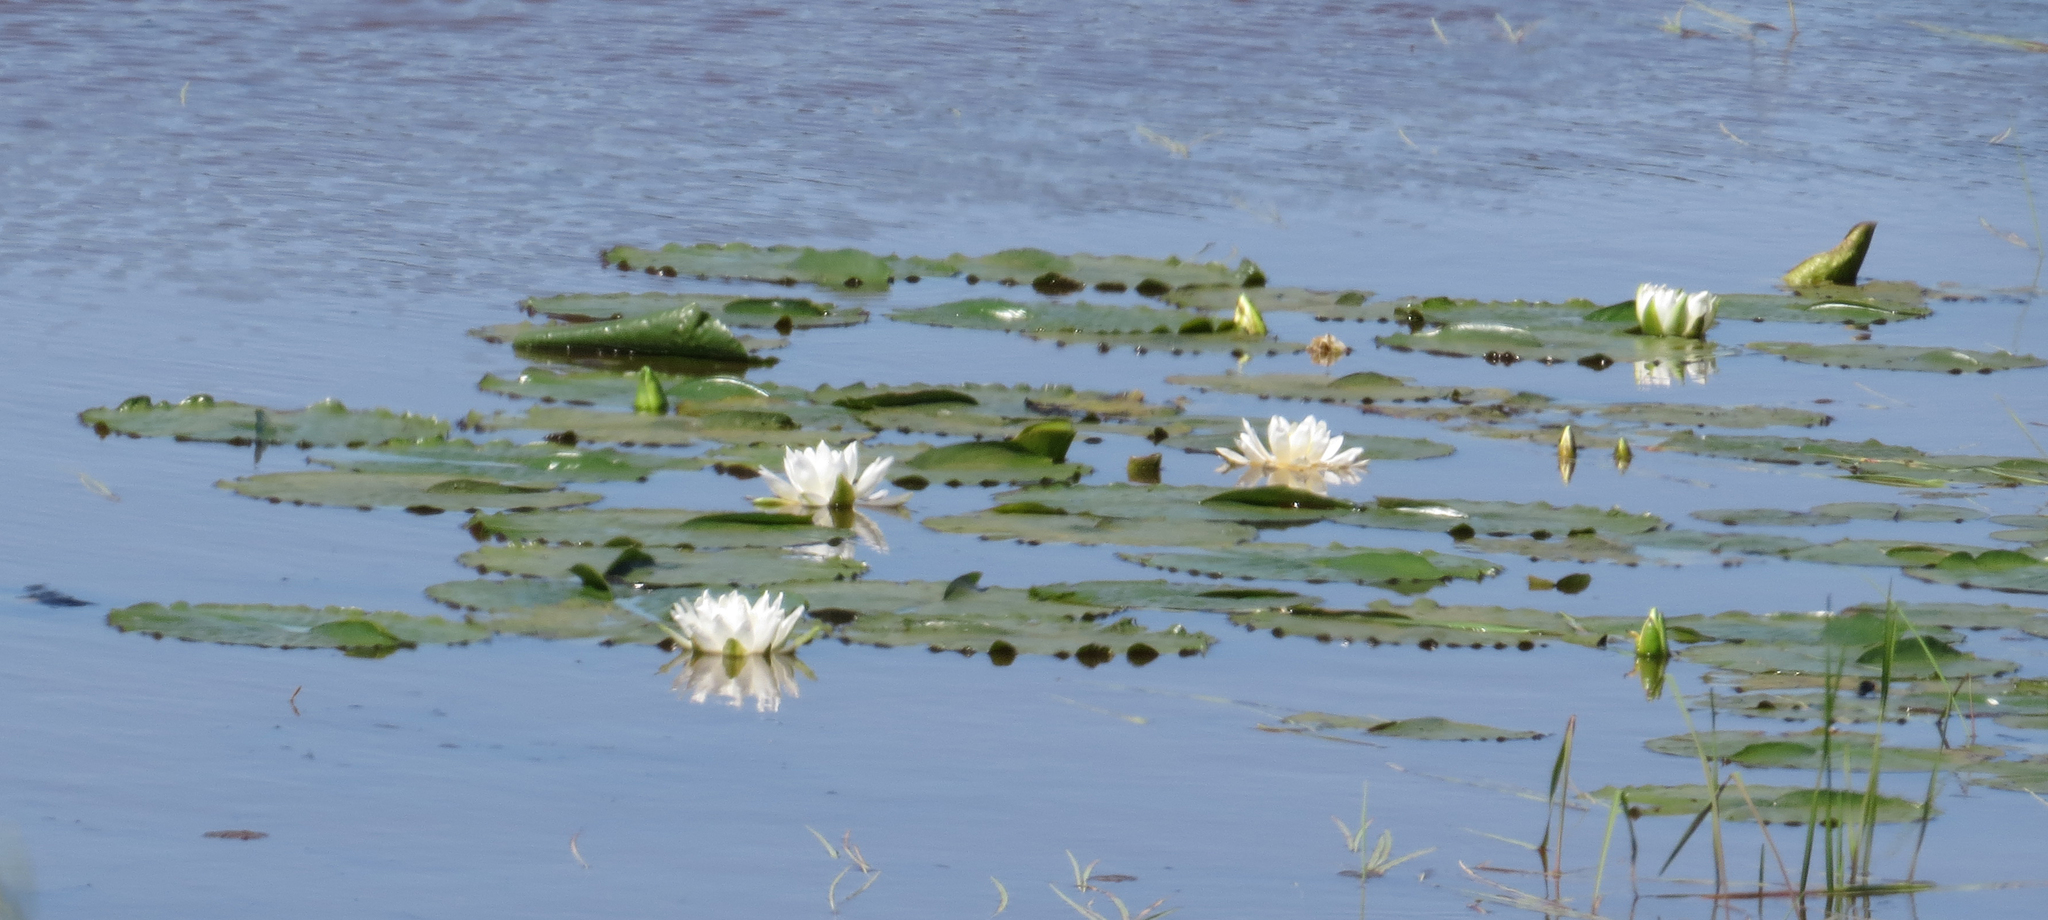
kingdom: Plantae
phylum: Tracheophyta
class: Magnoliopsida
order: Nymphaeales
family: Nymphaeaceae
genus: Nymphaea
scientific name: Nymphaea odorata
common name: Fragrant water-lily
